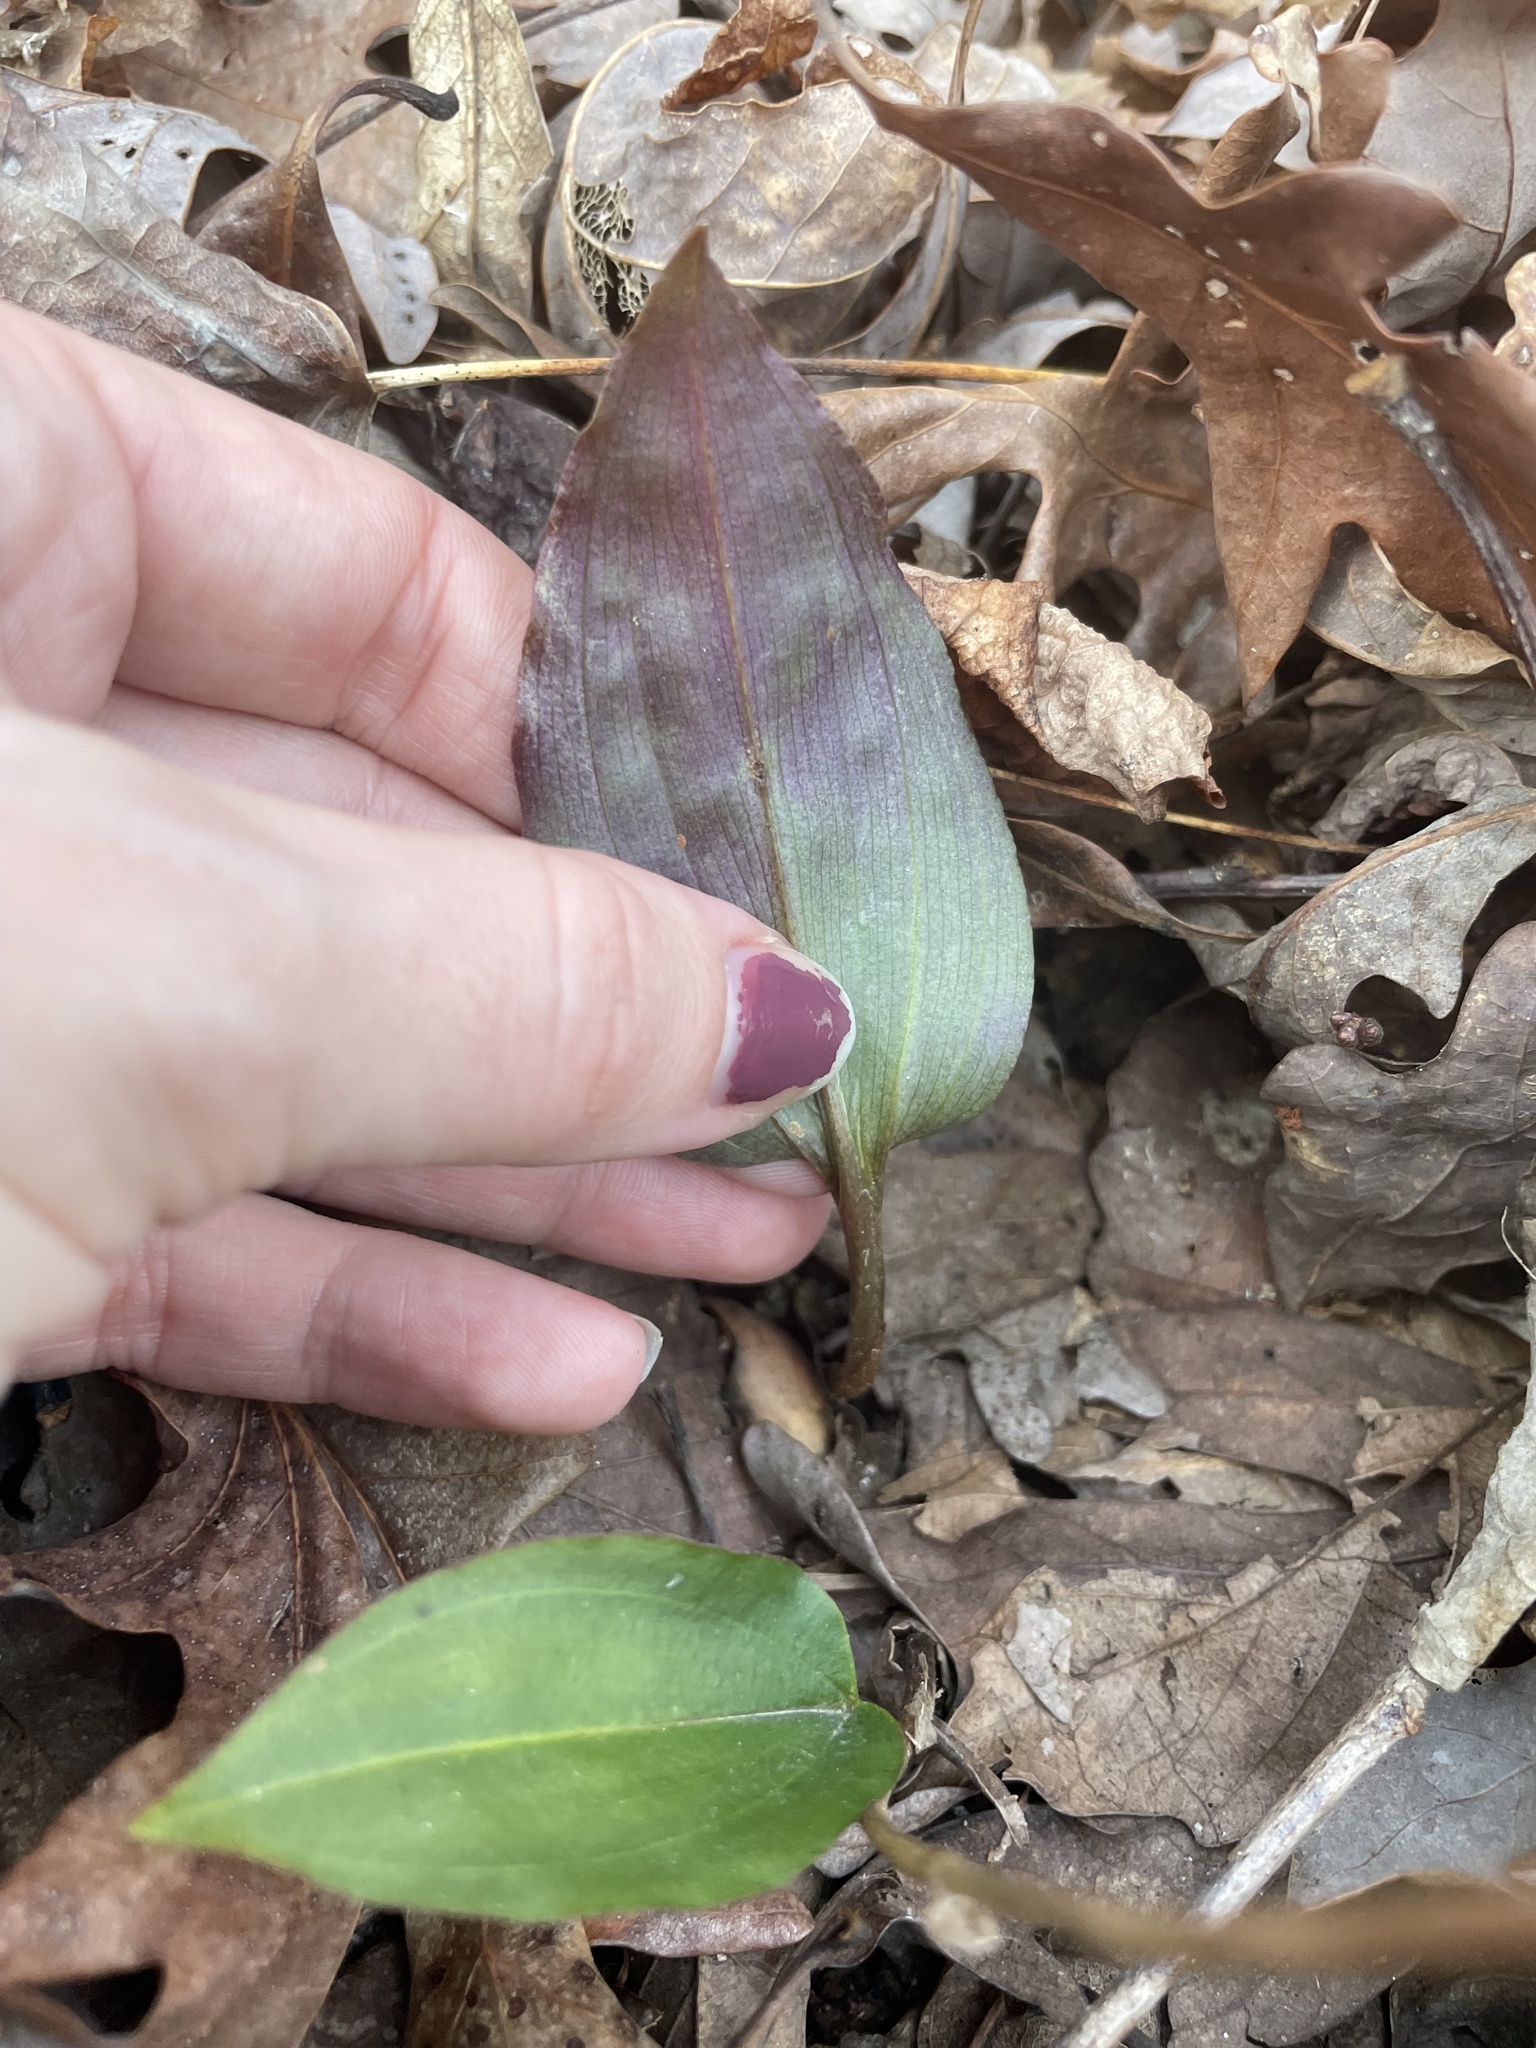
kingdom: Plantae
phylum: Tracheophyta
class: Liliopsida
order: Asparagales
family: Orchidaceae
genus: Tipularia
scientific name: Tipularia discolor
